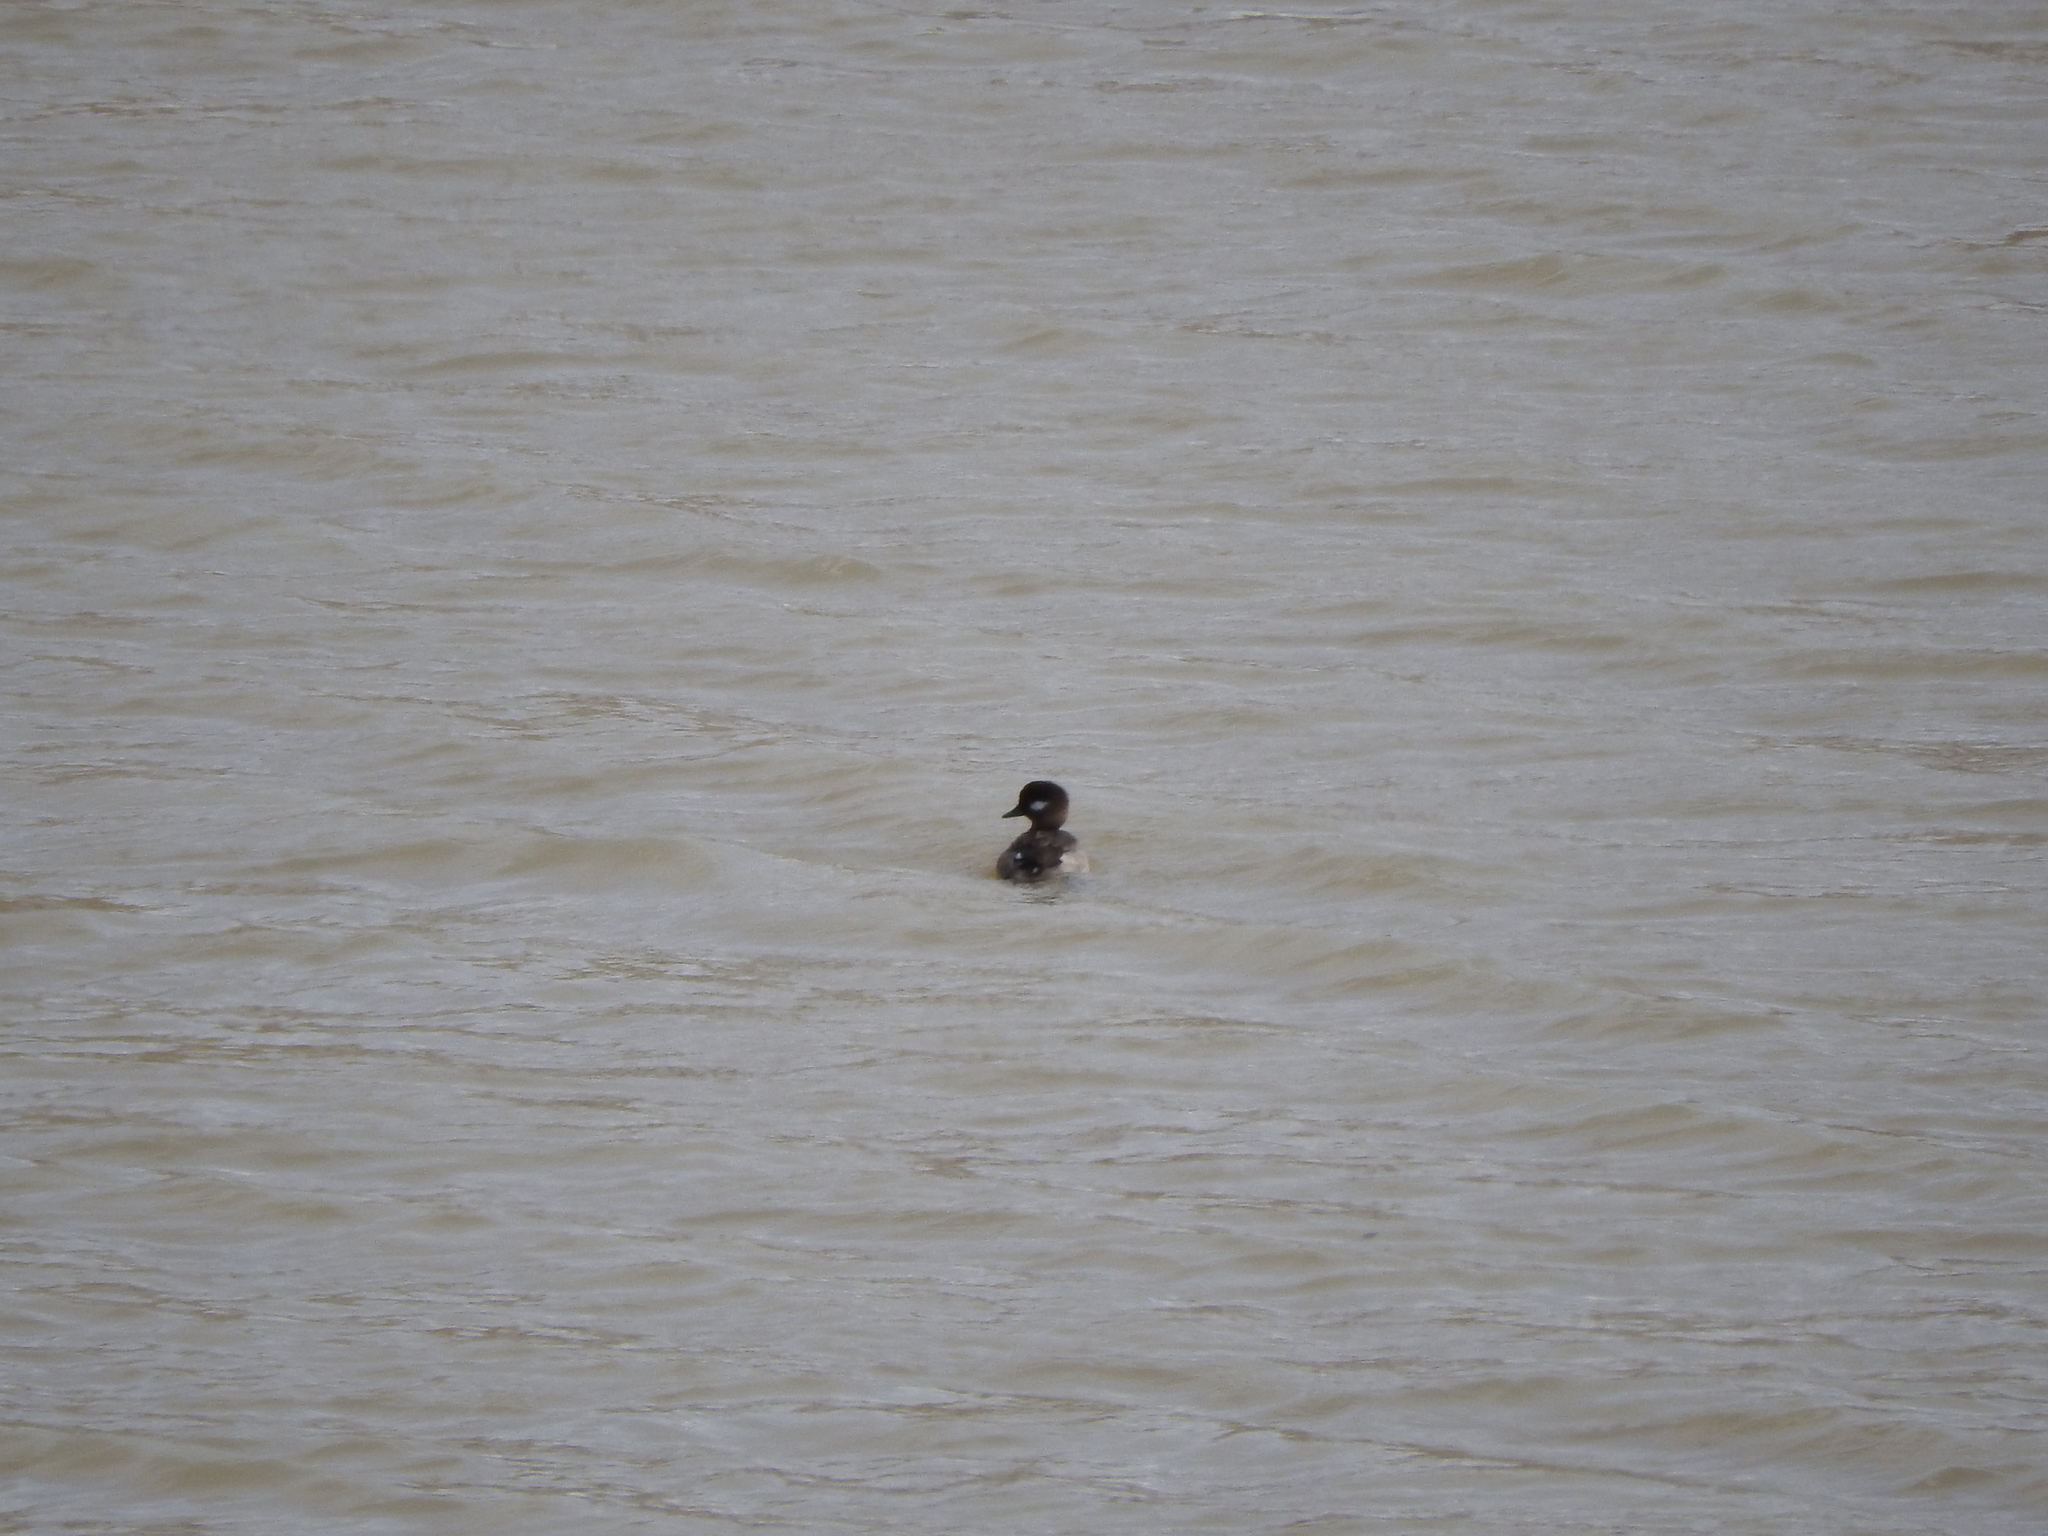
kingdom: Animalia
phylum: Chordata
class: Aves
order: Anseriformes
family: Anatidae
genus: Bucephala
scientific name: Bucephala albeola
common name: Bufflehead
